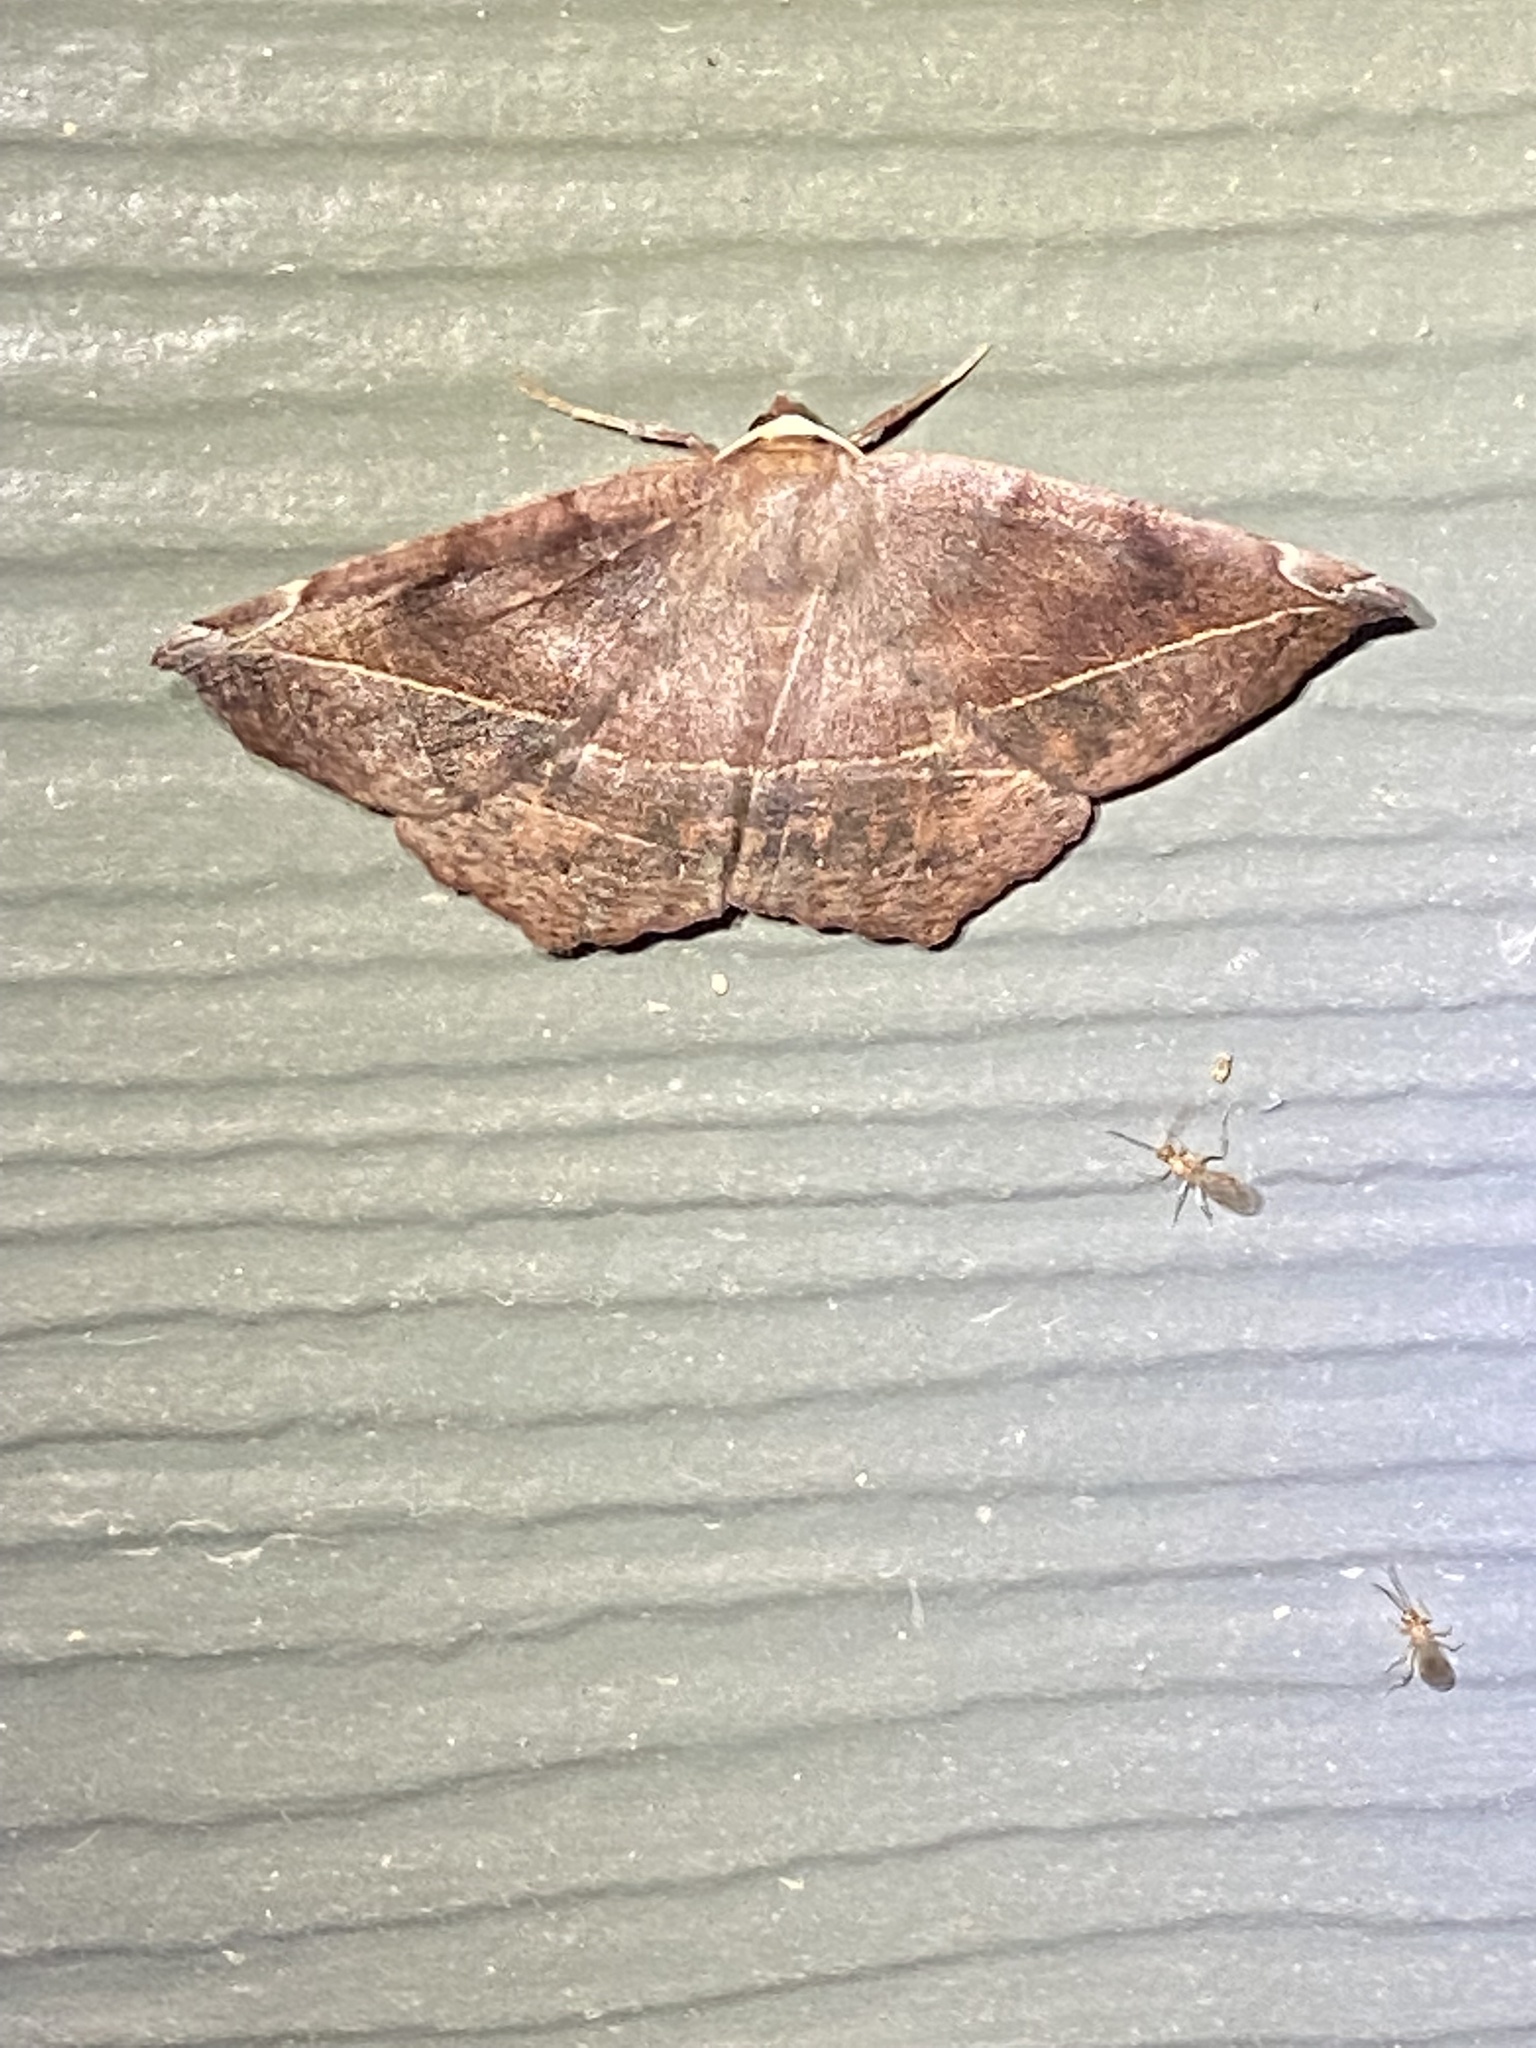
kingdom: Animalia
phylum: Arthropoda
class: Insecta
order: Lepidoptera
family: Geometridae
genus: Eutrapela
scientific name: Eutrapela clemataria
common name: Curved-toothed geometer
